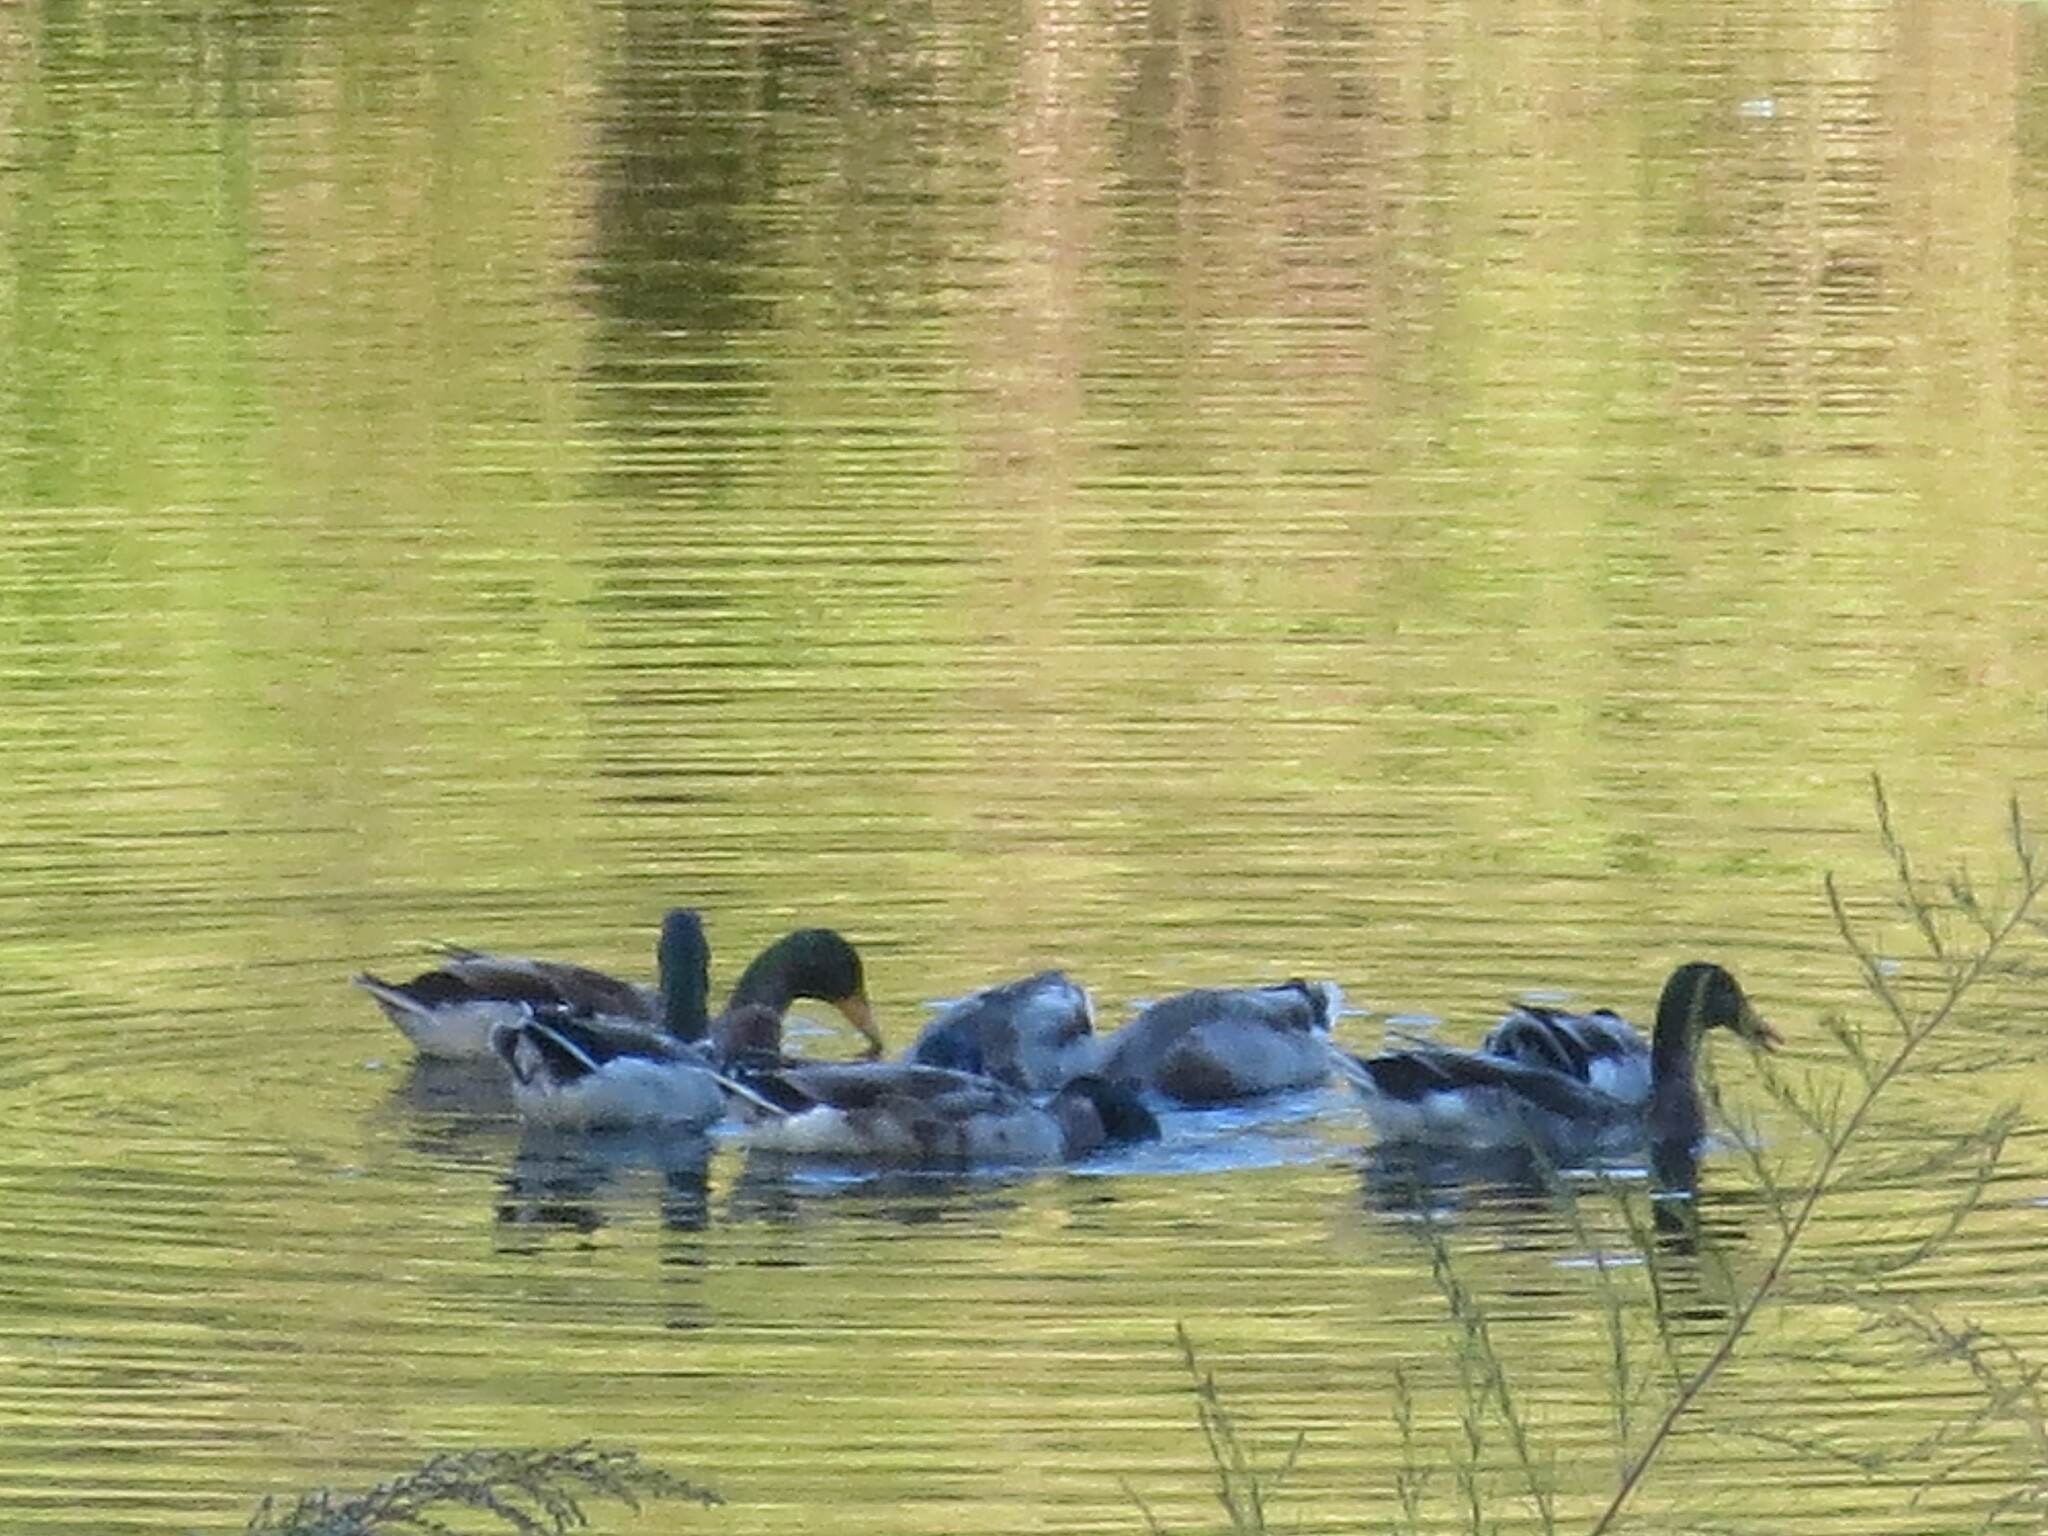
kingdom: Animalia
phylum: Chordata
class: Aves
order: Anseriformes
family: Anatidae
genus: Anas
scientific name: Anas platyrhynchos
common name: Mallard
